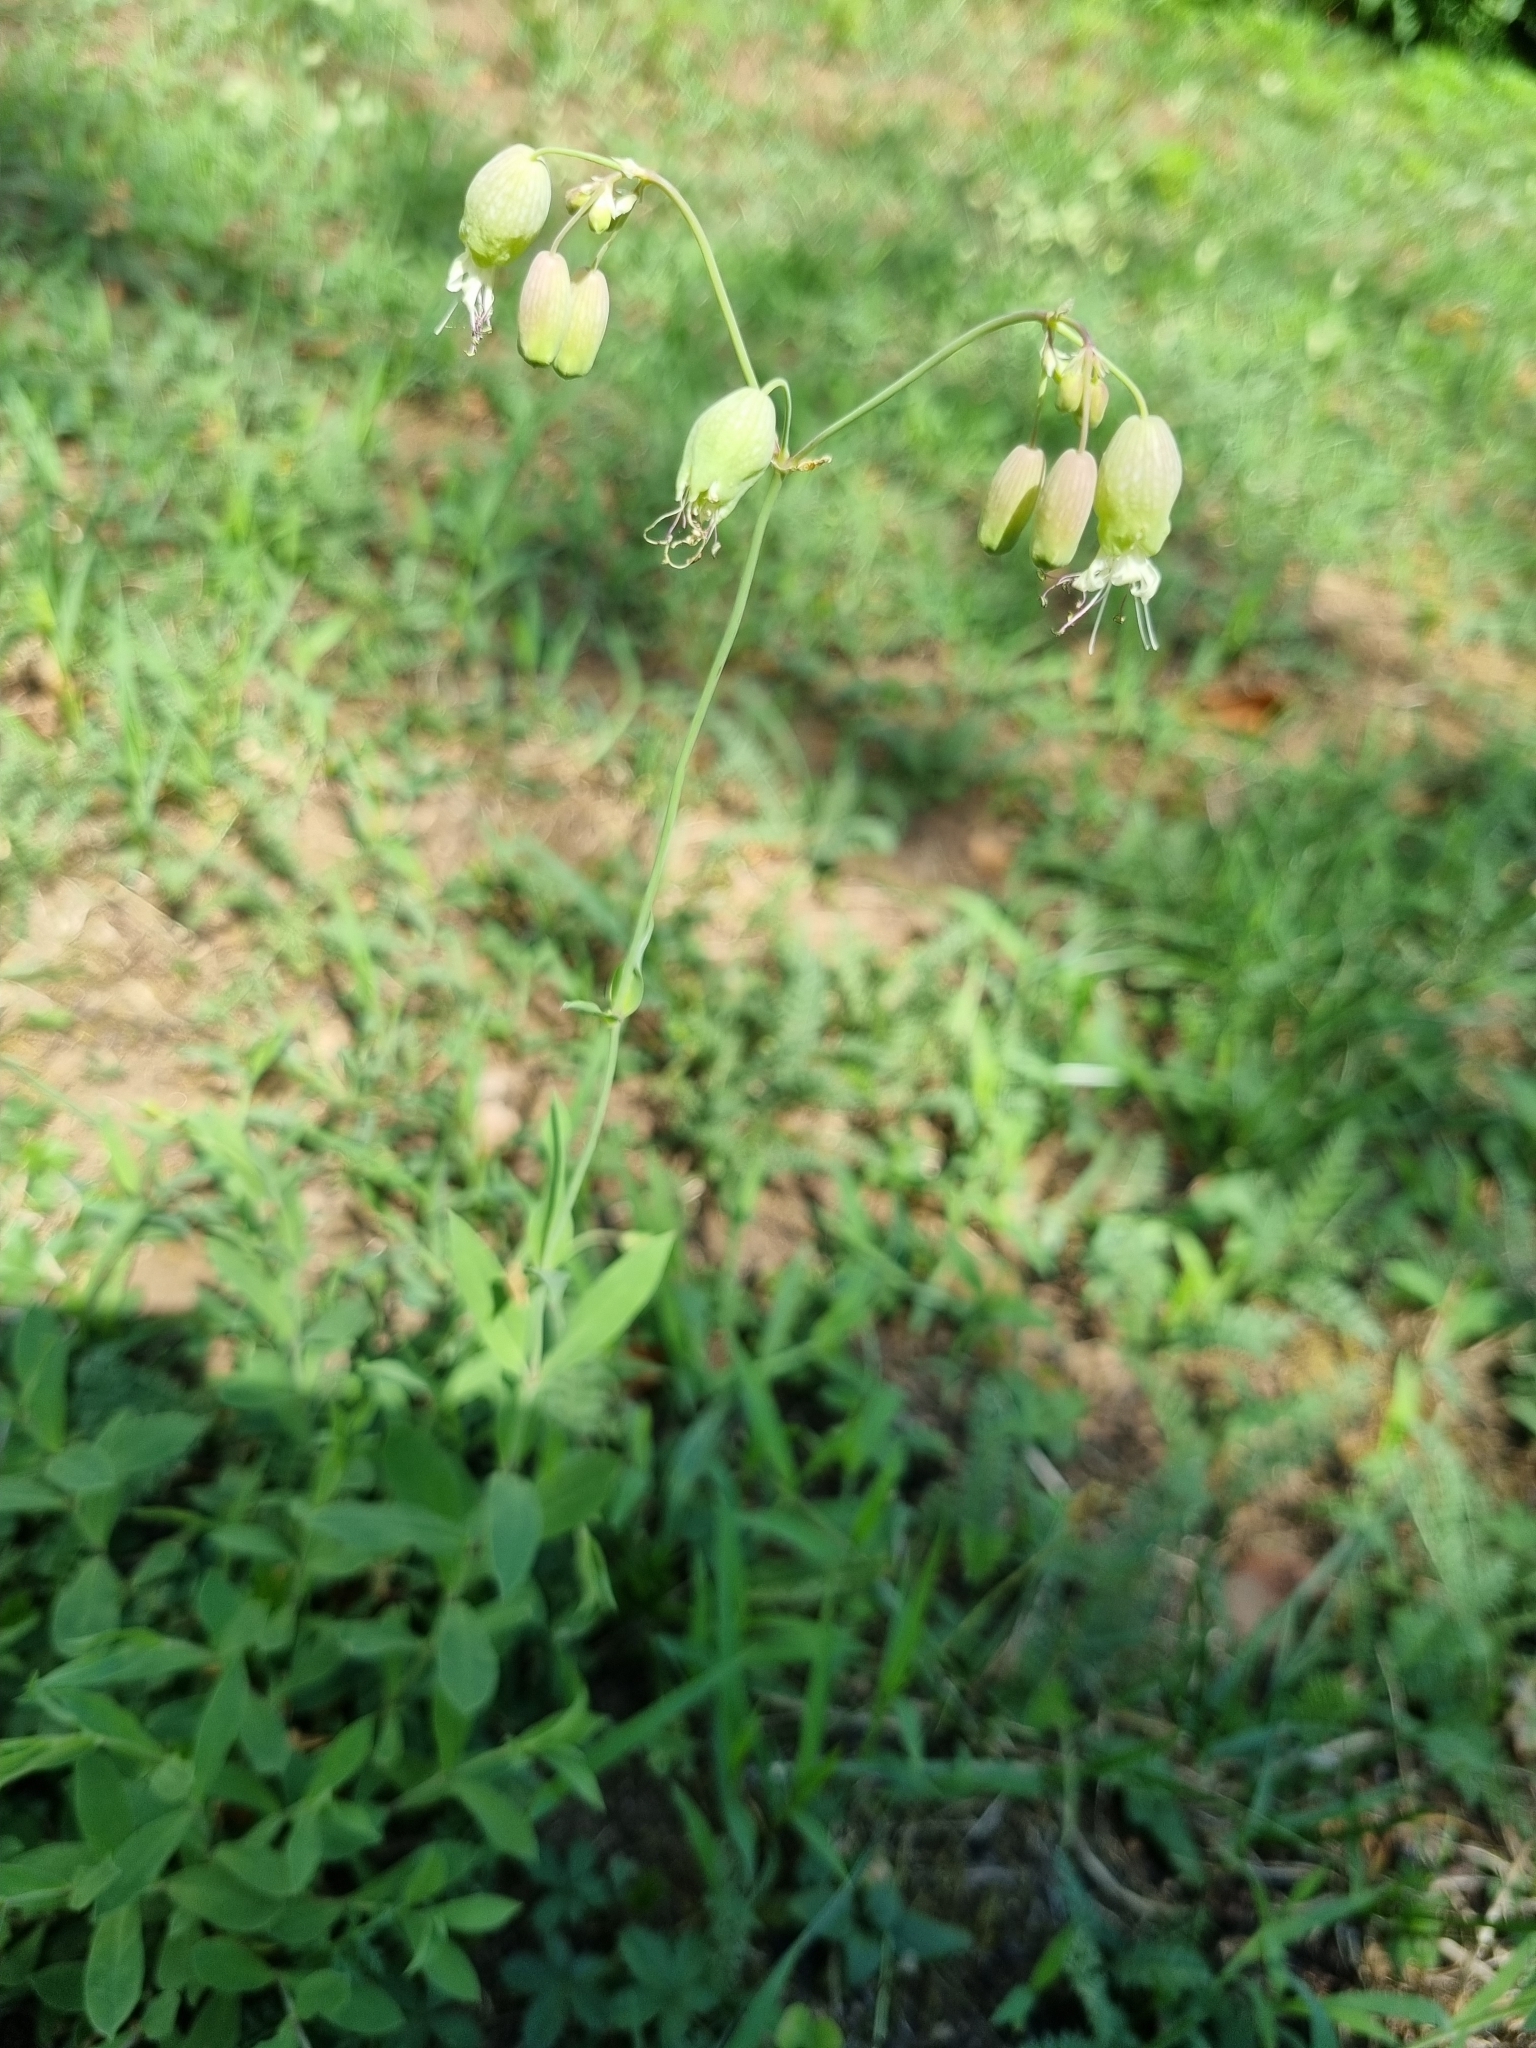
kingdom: Plantae
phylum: Tracheophyta
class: Magnoliopsida
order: Caryophyllales
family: Caryophyllaceae
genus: Silene
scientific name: Silene vulgaris
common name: Bladder campion
